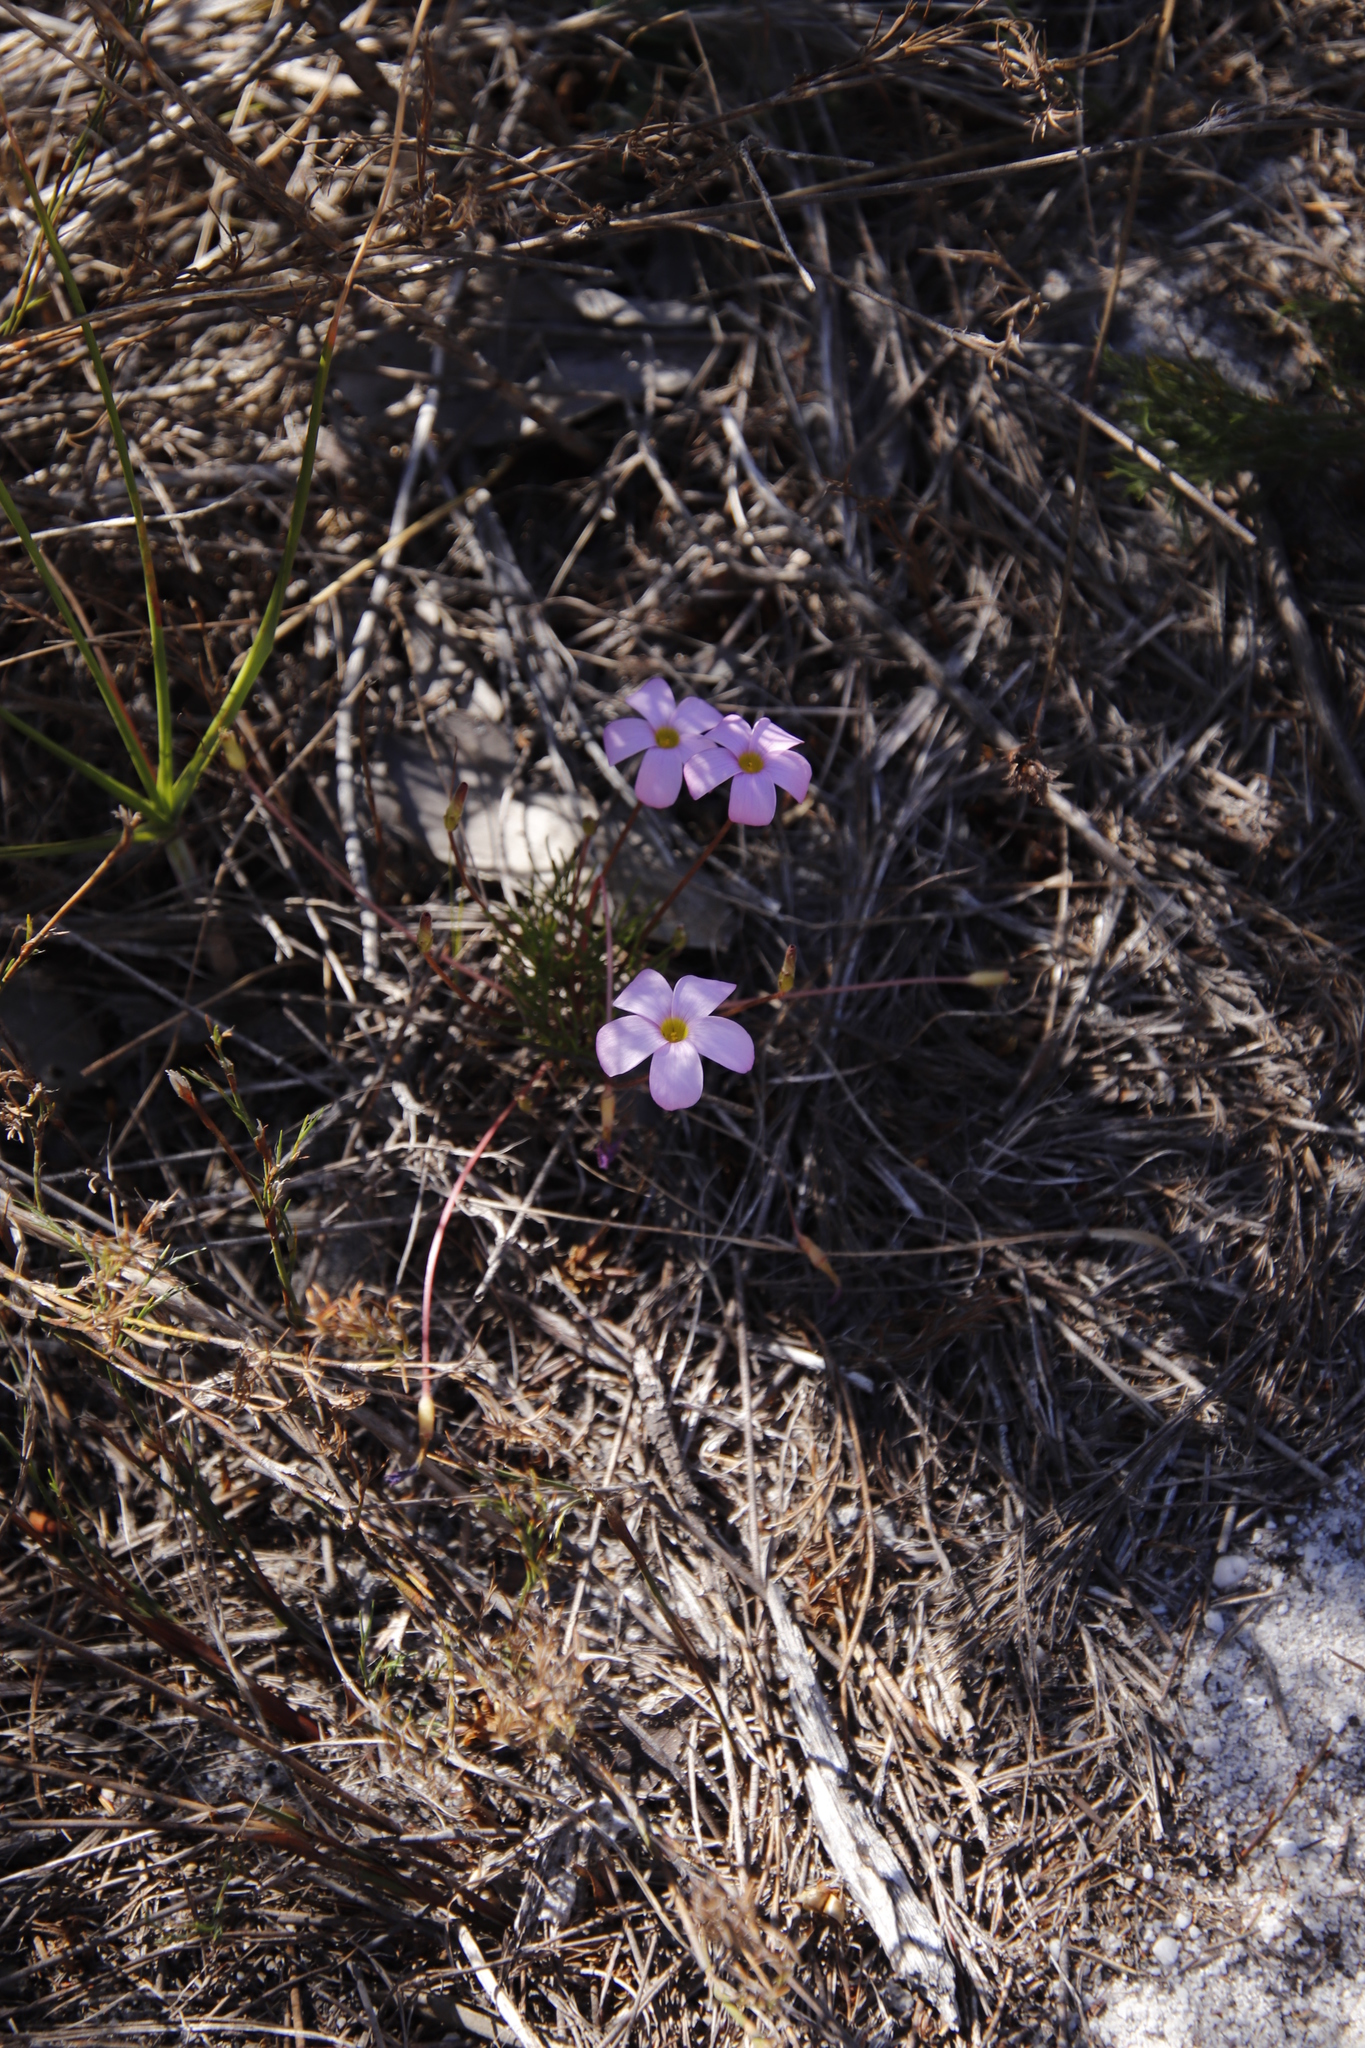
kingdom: Plantae
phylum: Tracheophyta
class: Magnoliopsida
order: Oxalidales
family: Oxalidaceae
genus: Oxalis
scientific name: Oxalis polyphylla
